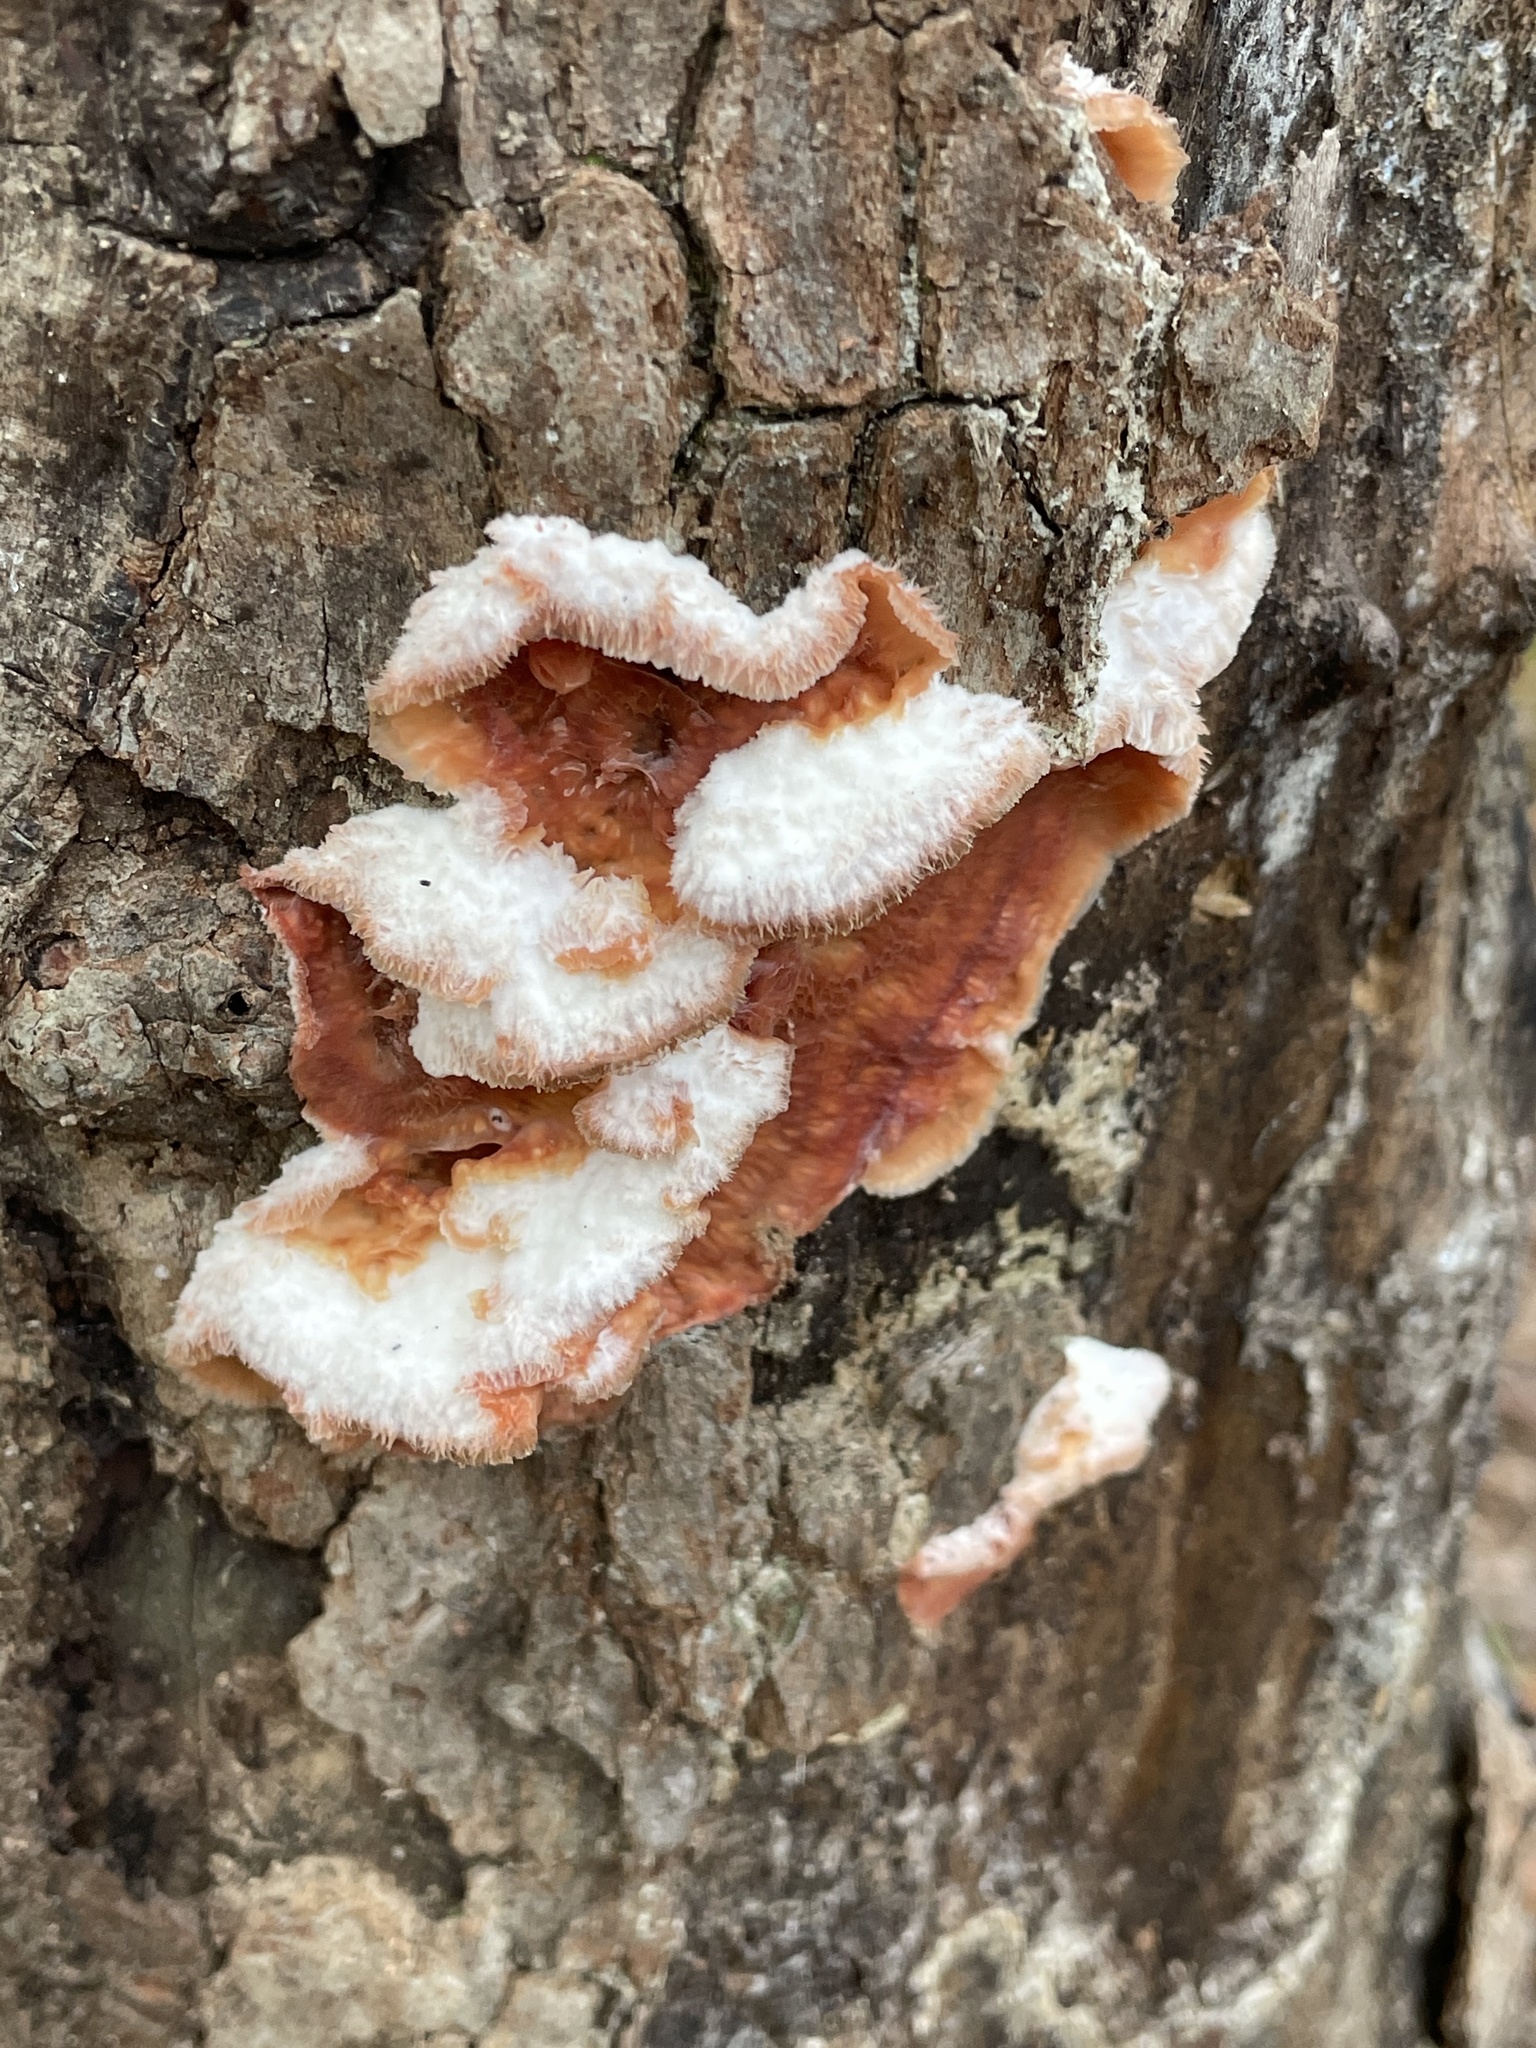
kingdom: Fungi
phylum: Basidiomycota
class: Agaricomycetes
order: Polyporales
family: Meruliaceae
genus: Phlebia
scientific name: Phlebia tremellosa
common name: Jelly rot
